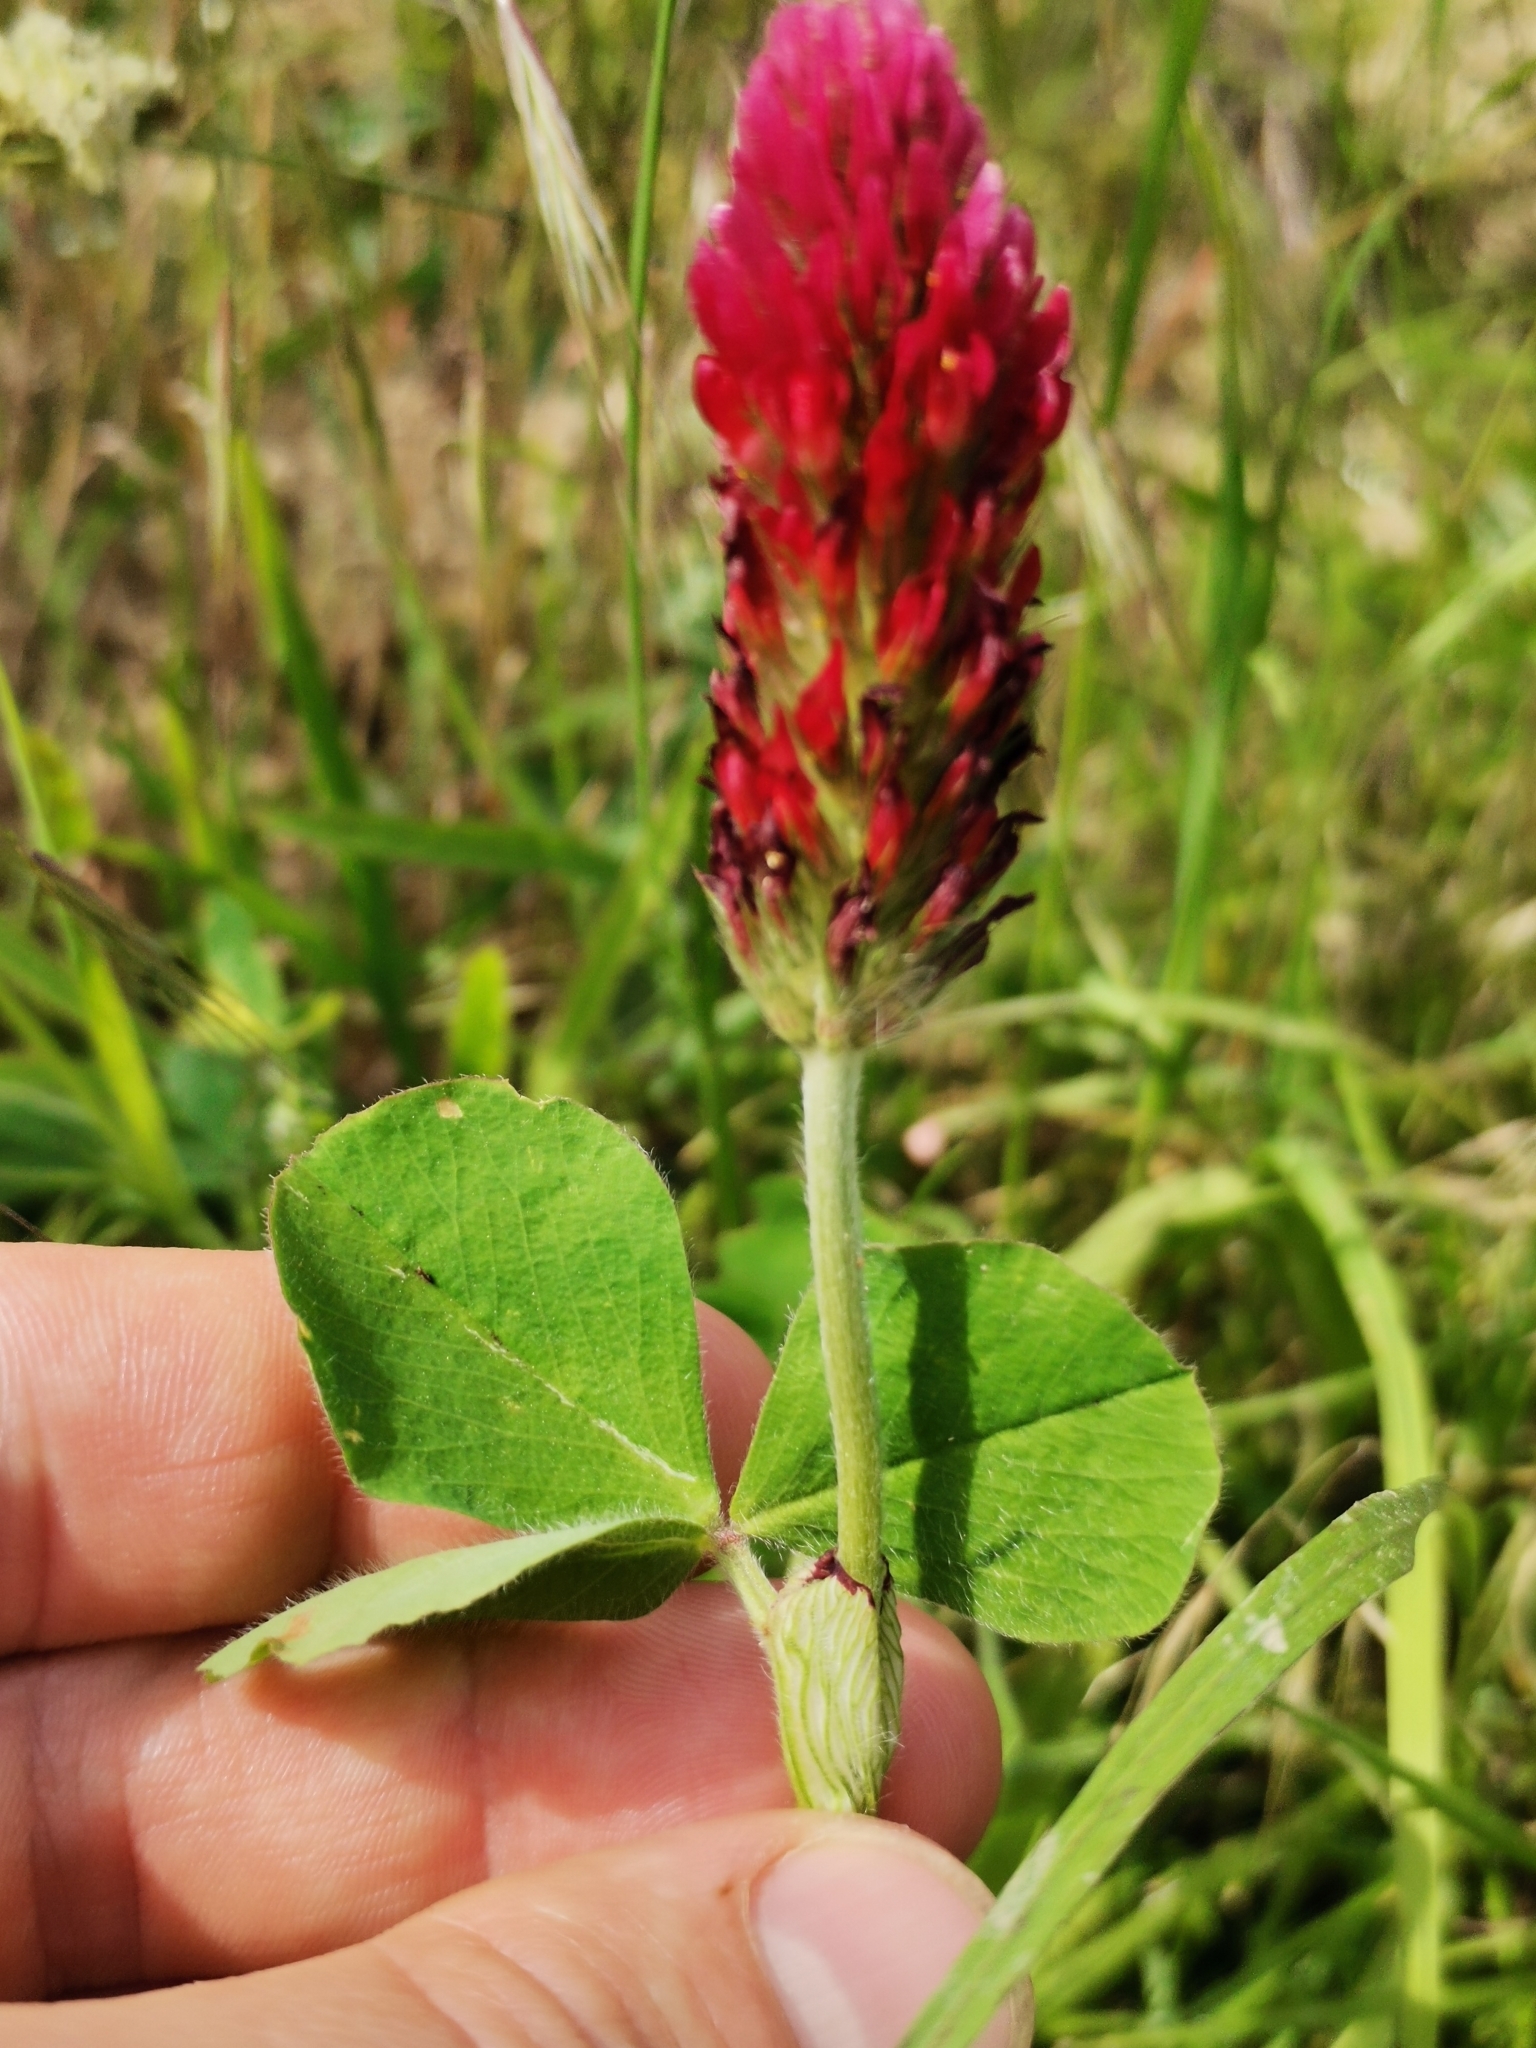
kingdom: Plantae
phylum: Tracheophyta
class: Magnoliopsida
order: Fabales
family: Fabaceae
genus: Trifolium
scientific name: Trifolium incarnatum
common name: Crimson clover
